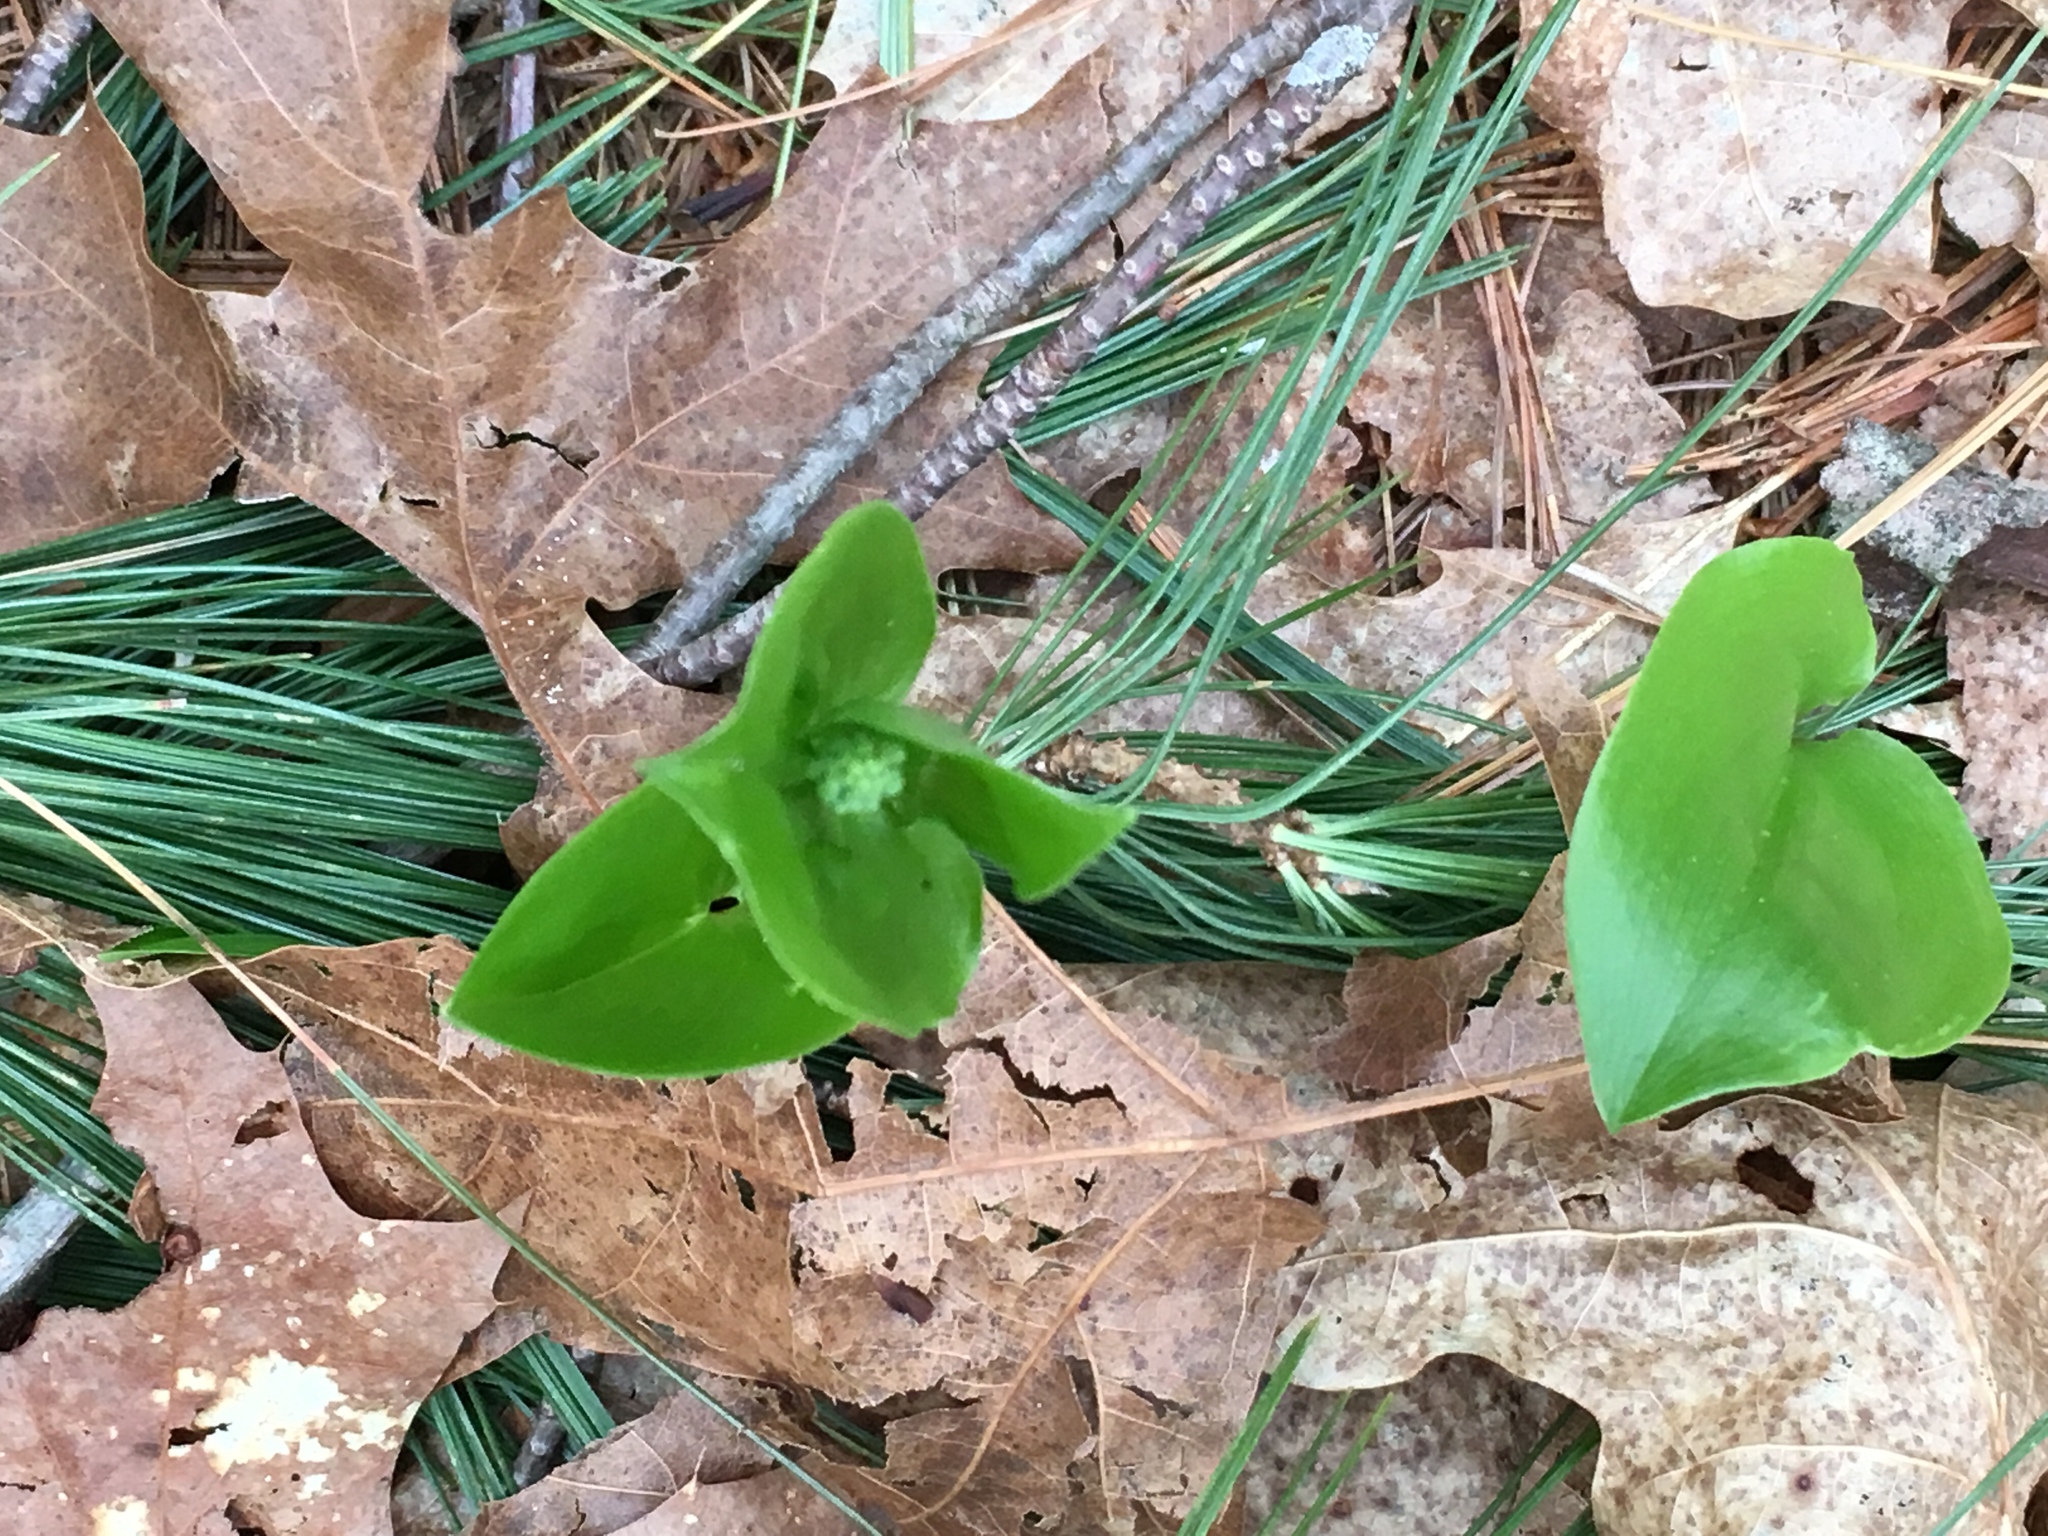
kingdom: Plantae
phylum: Tracheophyta
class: Liliopsida
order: Asparagales
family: Asparagaceae
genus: Maianthemum
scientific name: Maianthemum canadense
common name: False lily-of-the-valley
